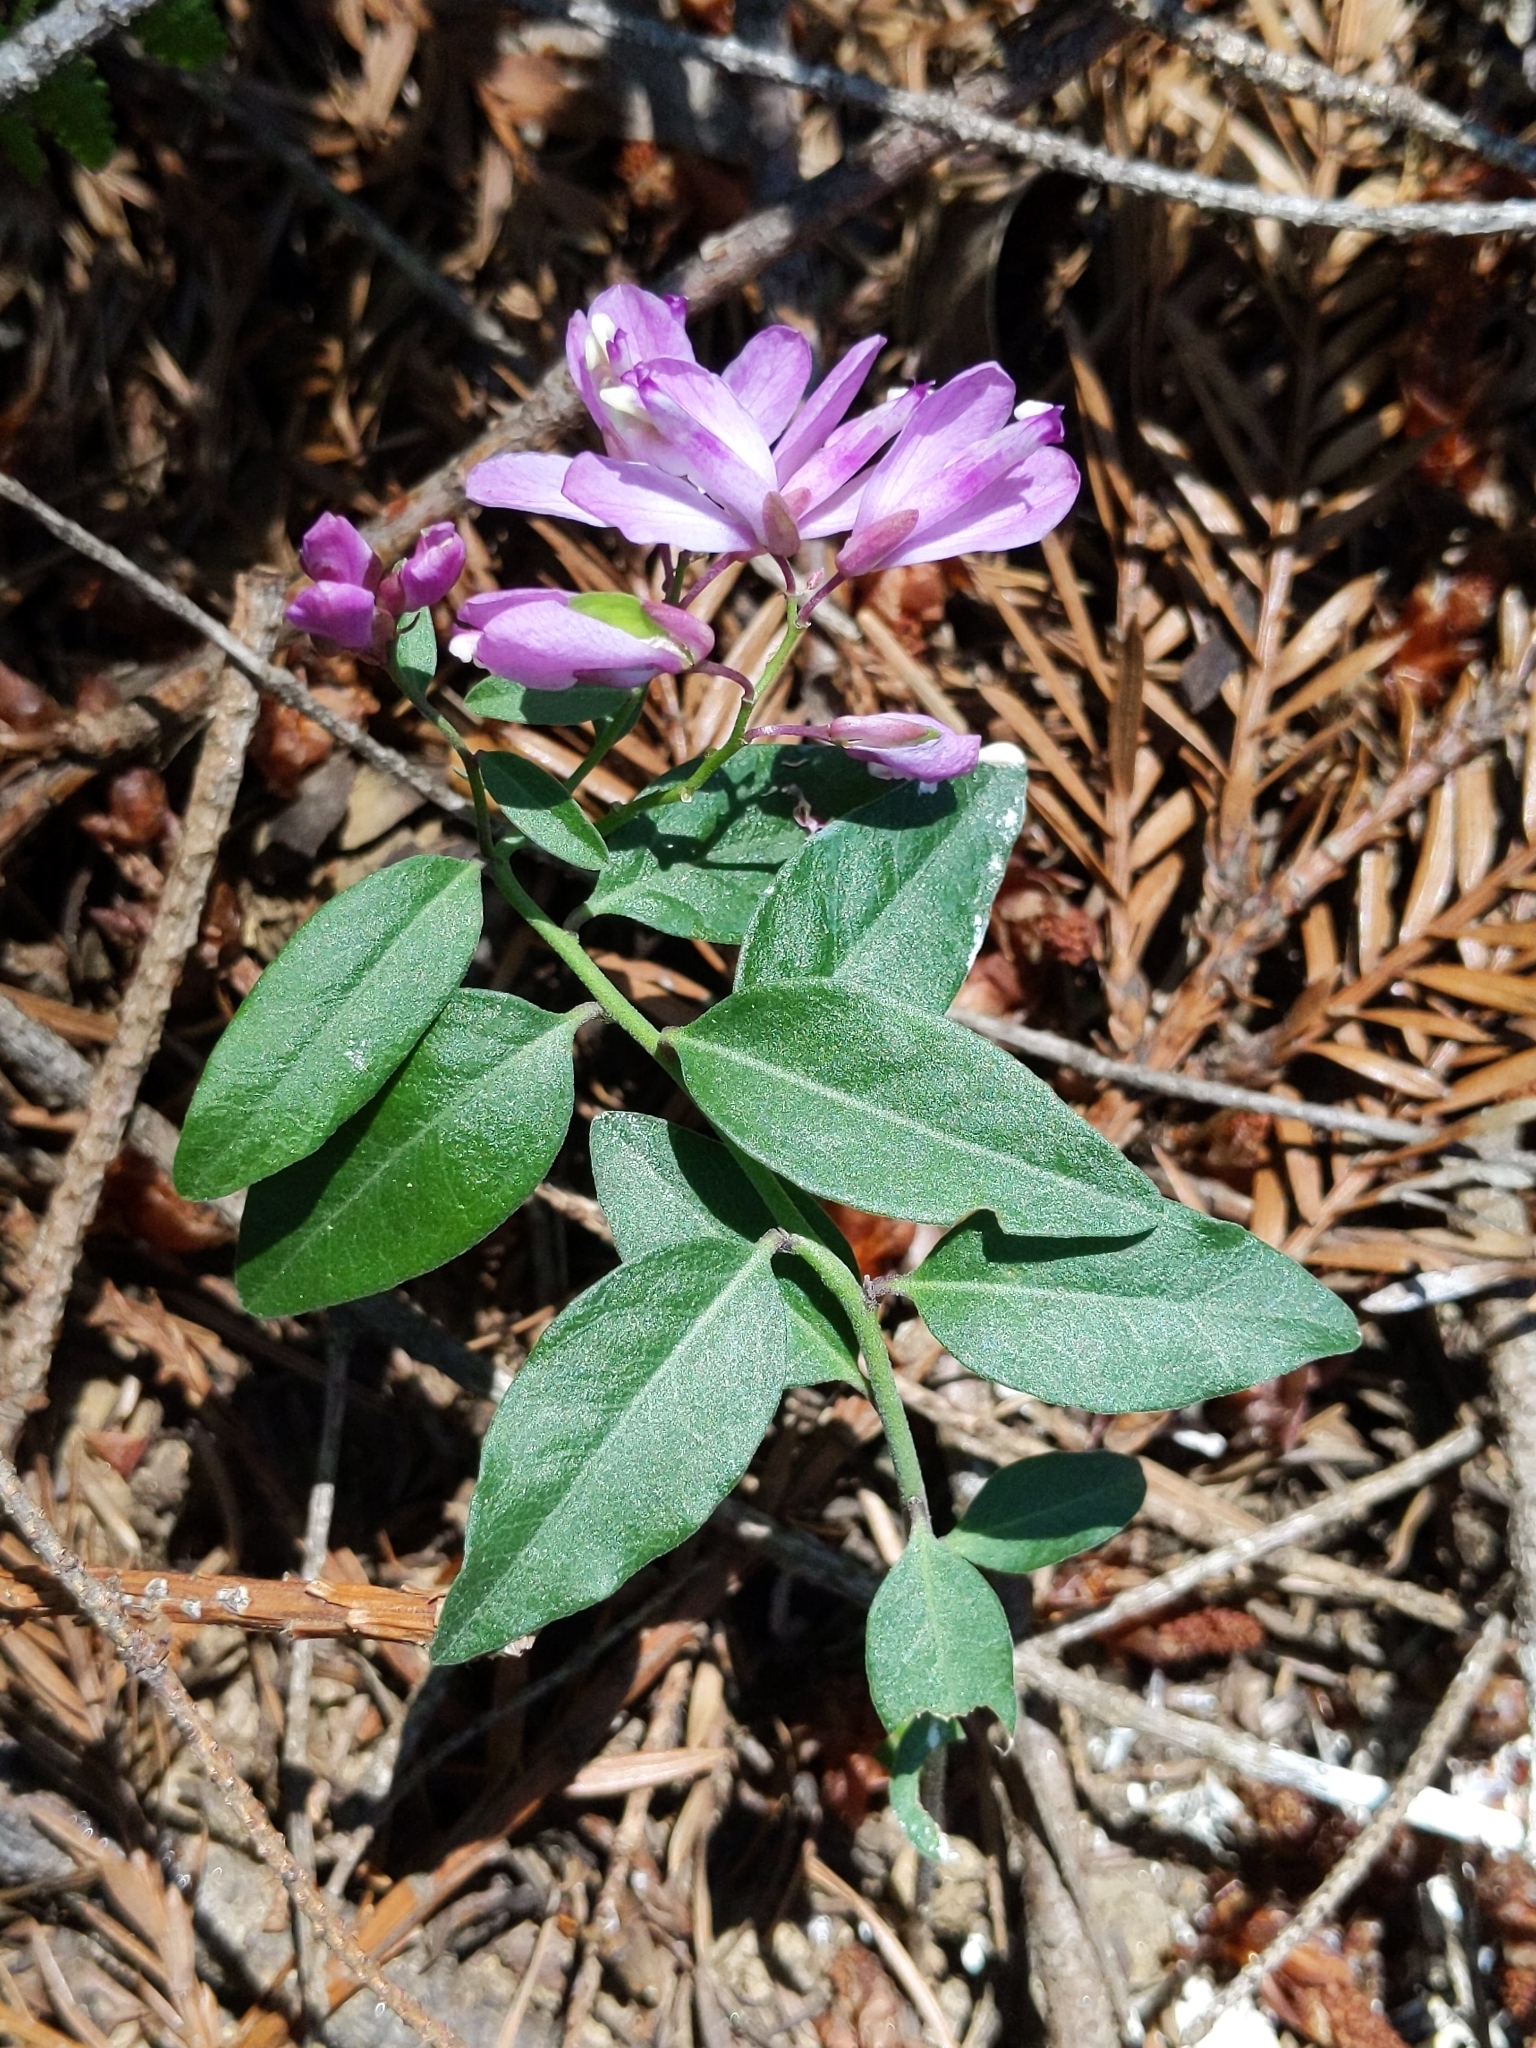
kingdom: Plantae
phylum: Tracheophyta
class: Magnoliopsida
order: Fabales
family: Polygalaceae
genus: Rhinotropis
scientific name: Rhinotropis californica
